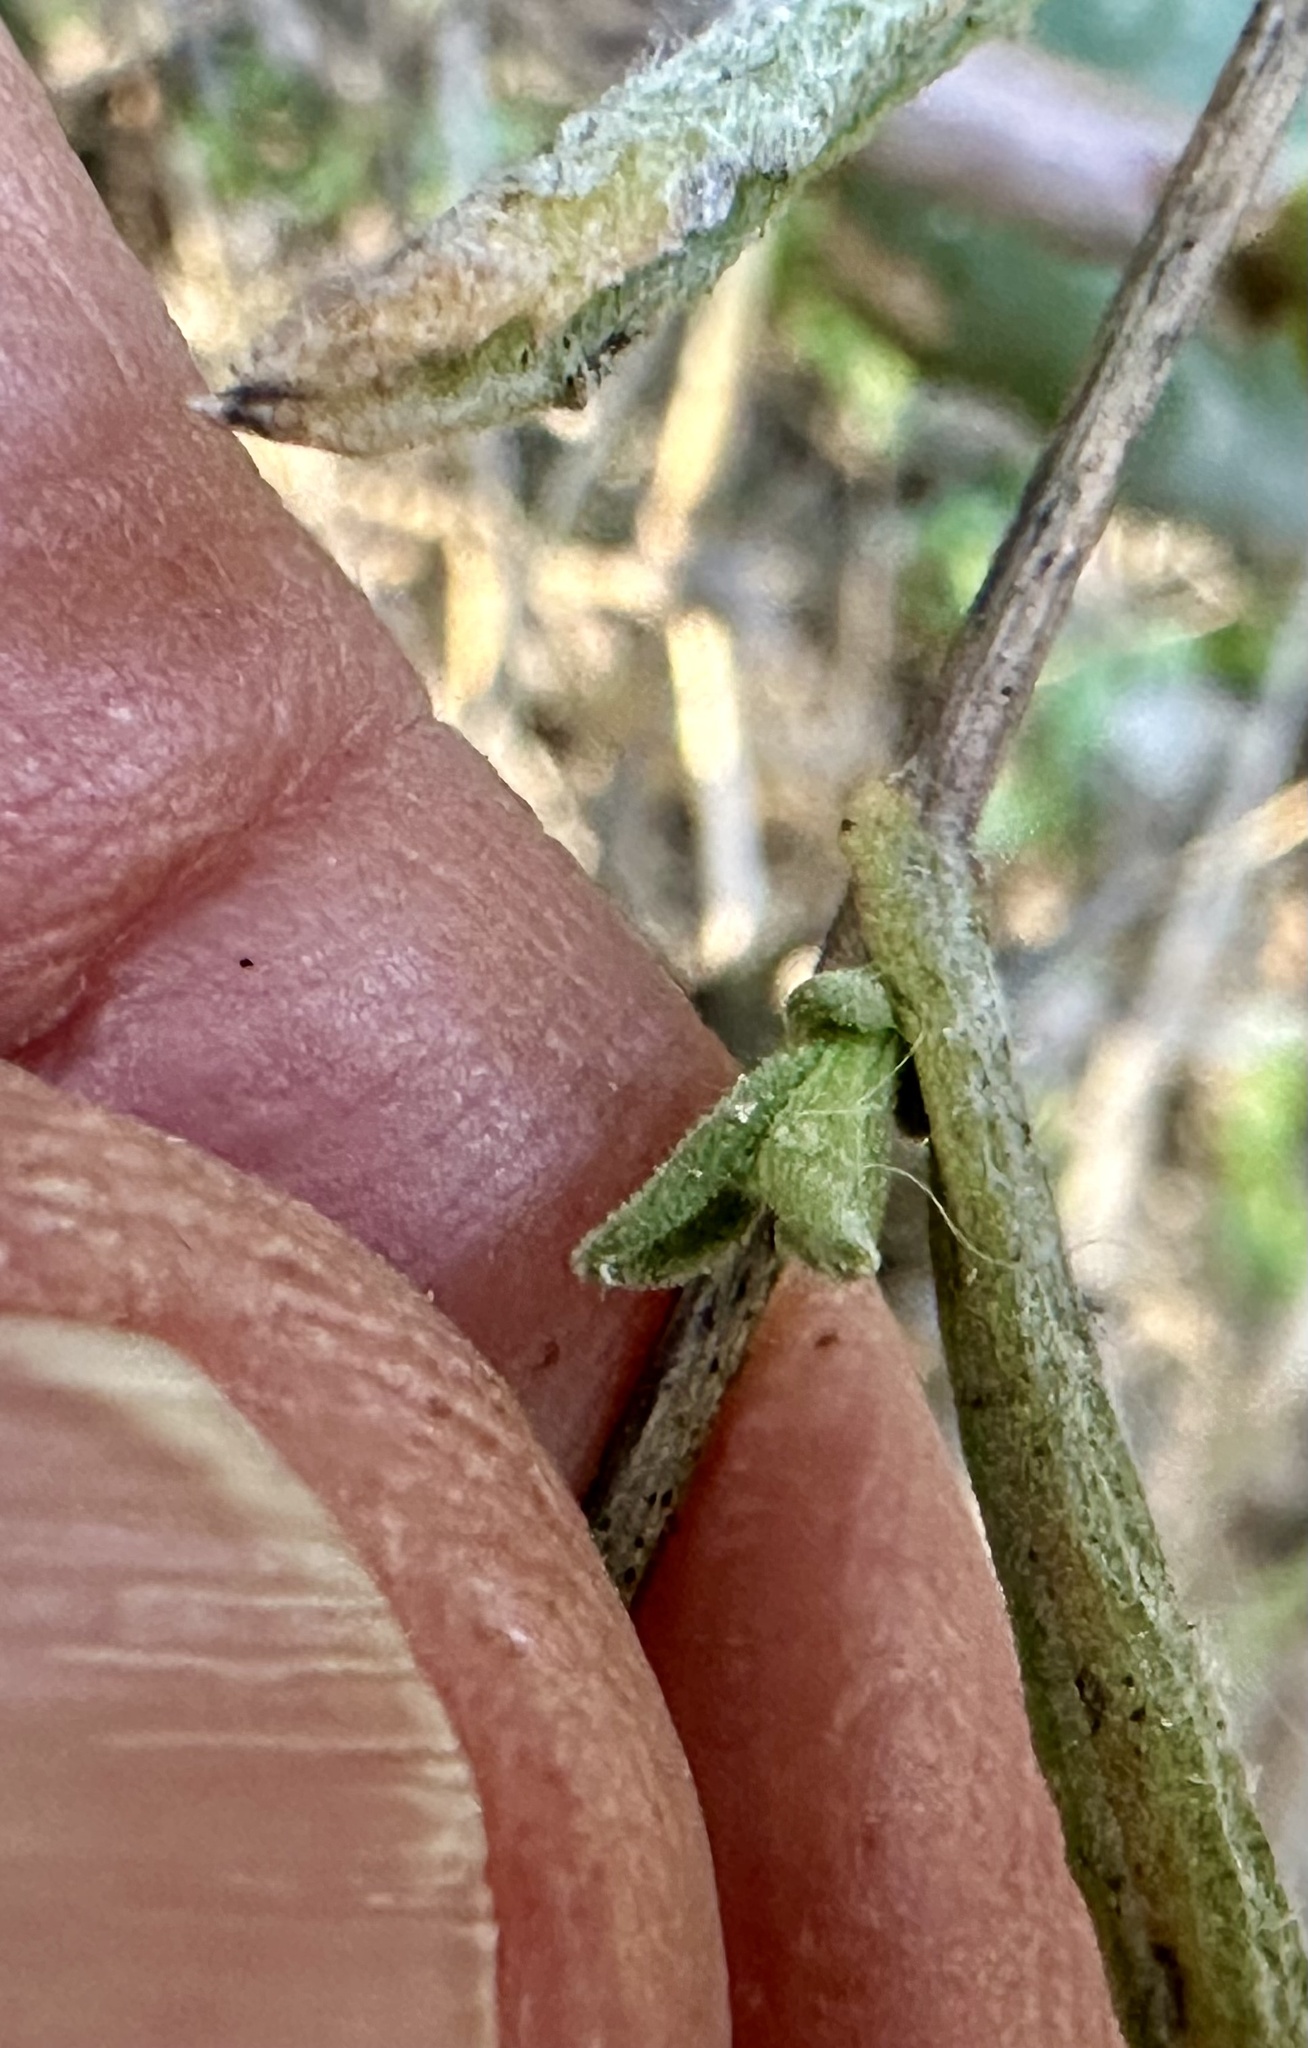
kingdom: Plantae
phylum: Tracheophyta
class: Magnoliopsida
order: Asterales
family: Asteraceae
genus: Corethrogyne
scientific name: Corethrogyne filaginifolia
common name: Sand-aster
